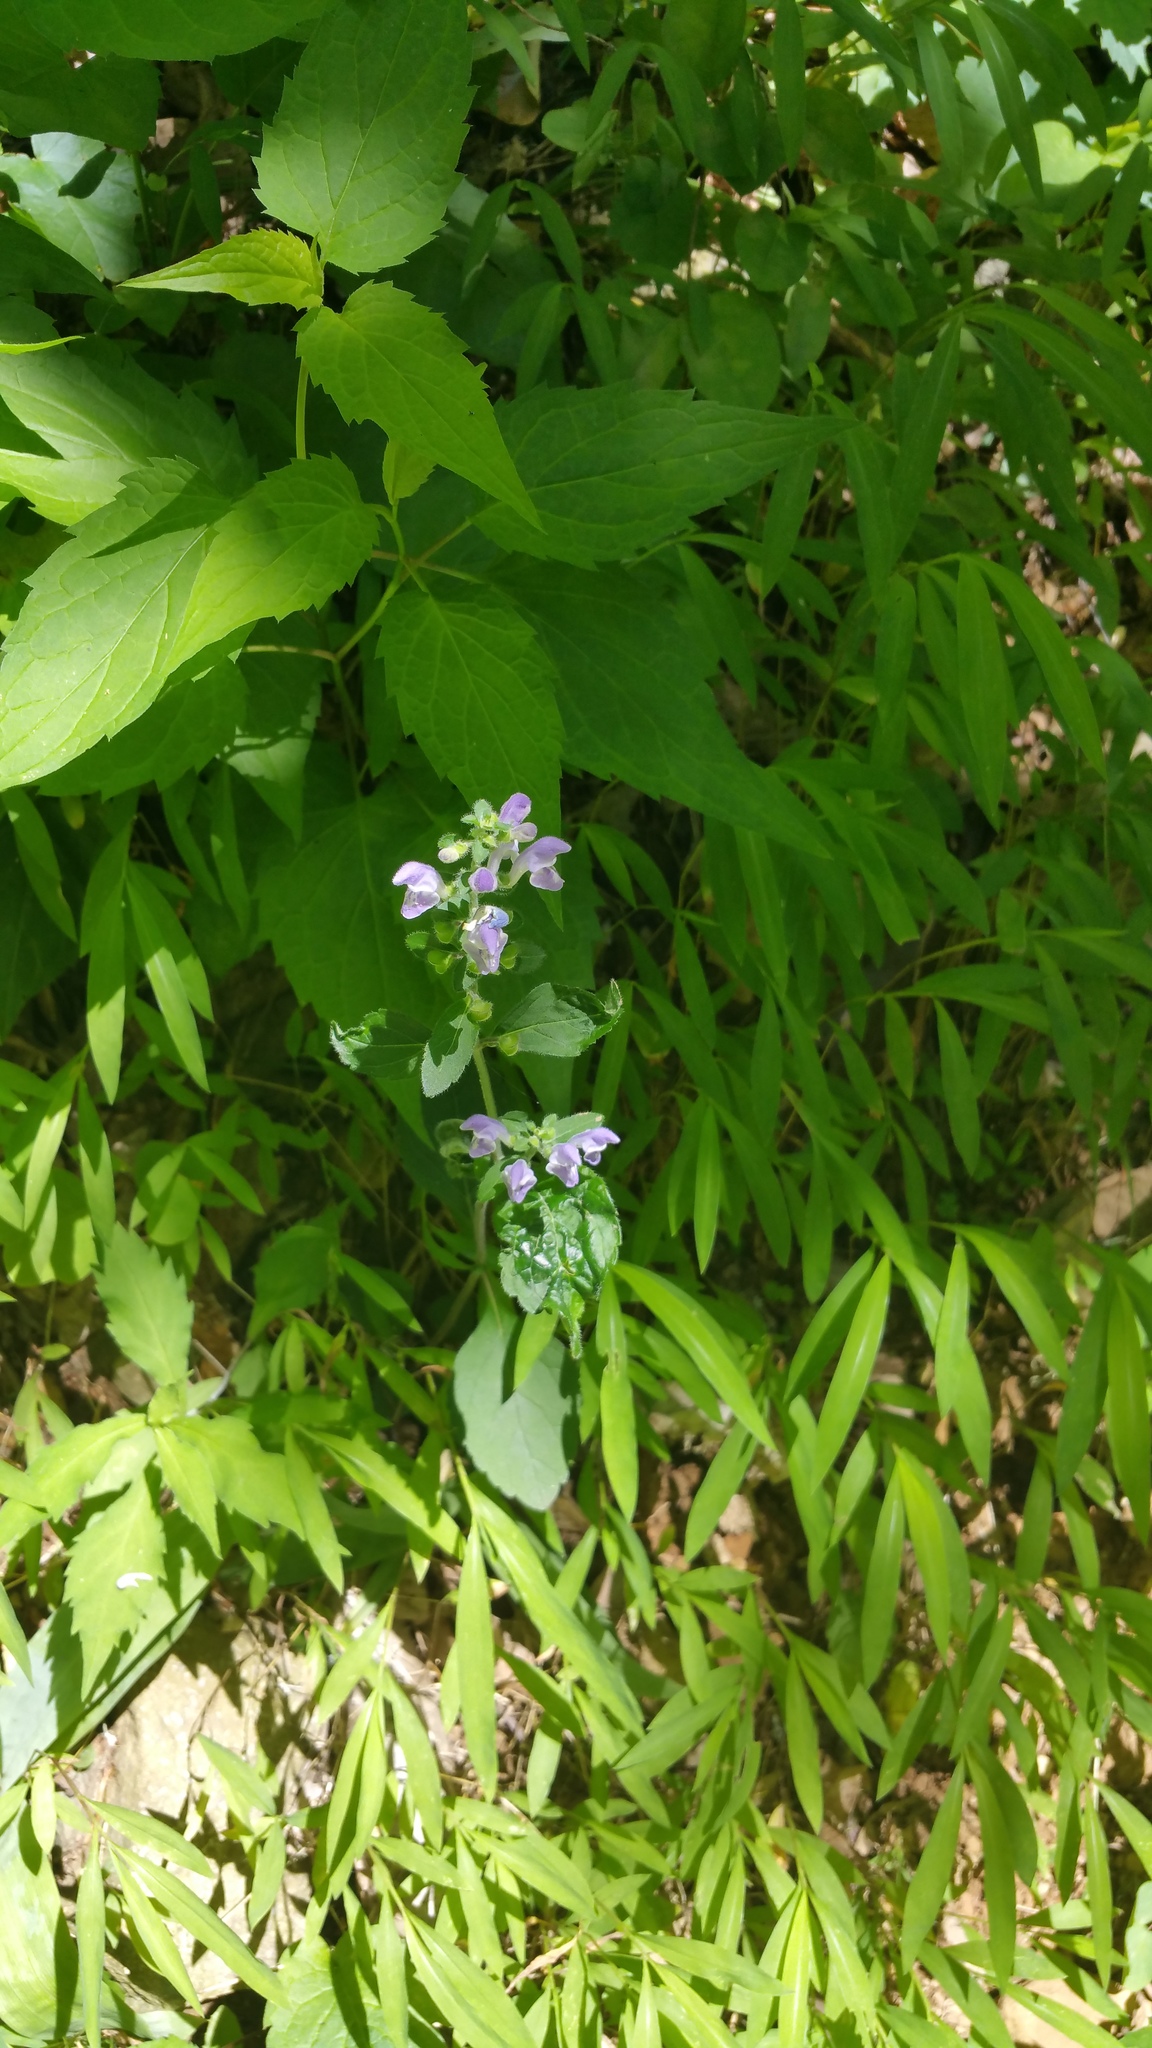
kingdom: Plantae
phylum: Tracheophyta
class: Magnoliopsida
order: Lamiales
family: Lamiaceae
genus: Scutellaria
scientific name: Scutellaria elliptica
